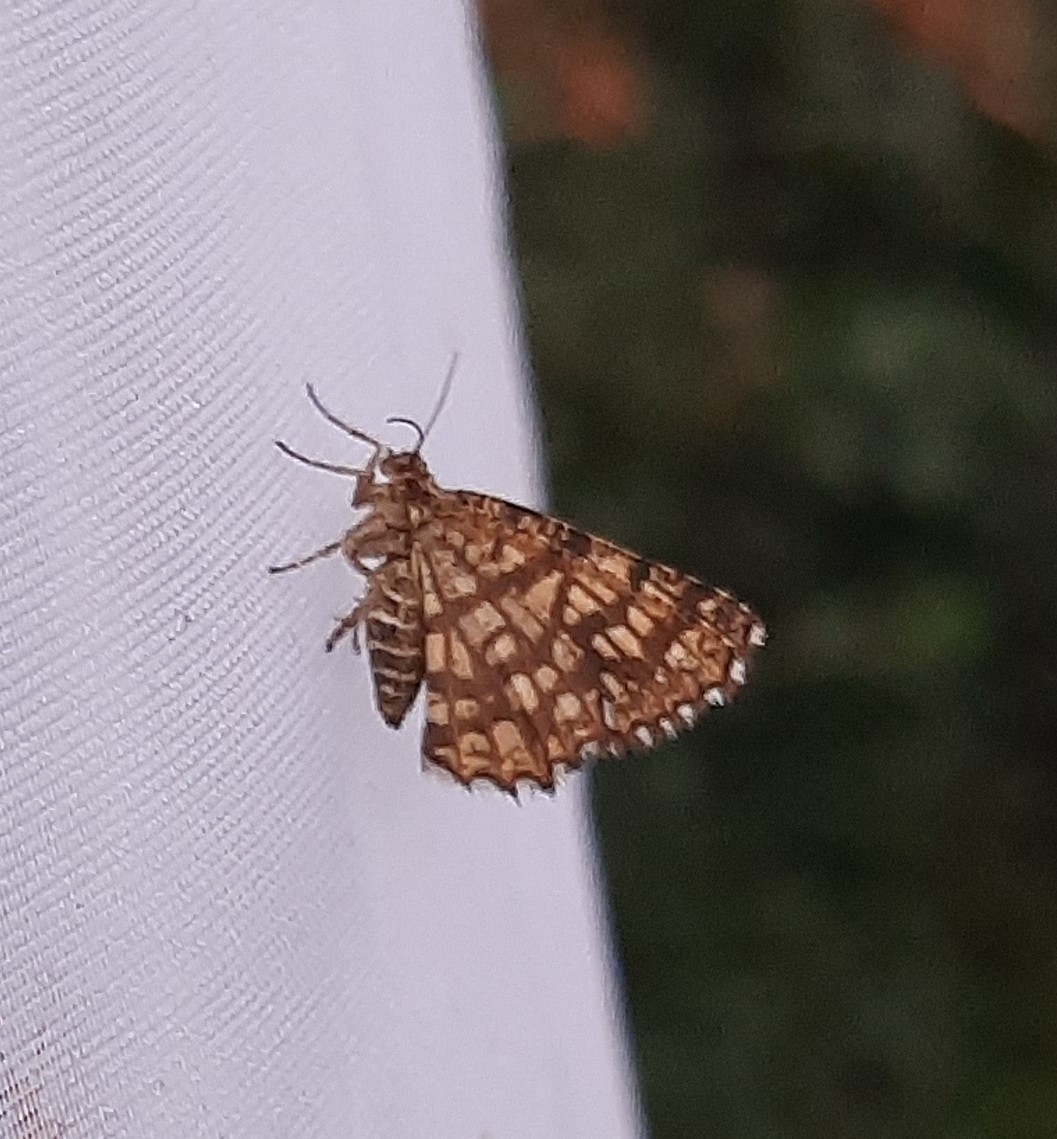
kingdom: Animalia
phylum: Arthropoda
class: Insecta
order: Lepidoptera
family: Geometridae
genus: Chiasmia
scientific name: Chiasmia clathrata
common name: Latticed heath
